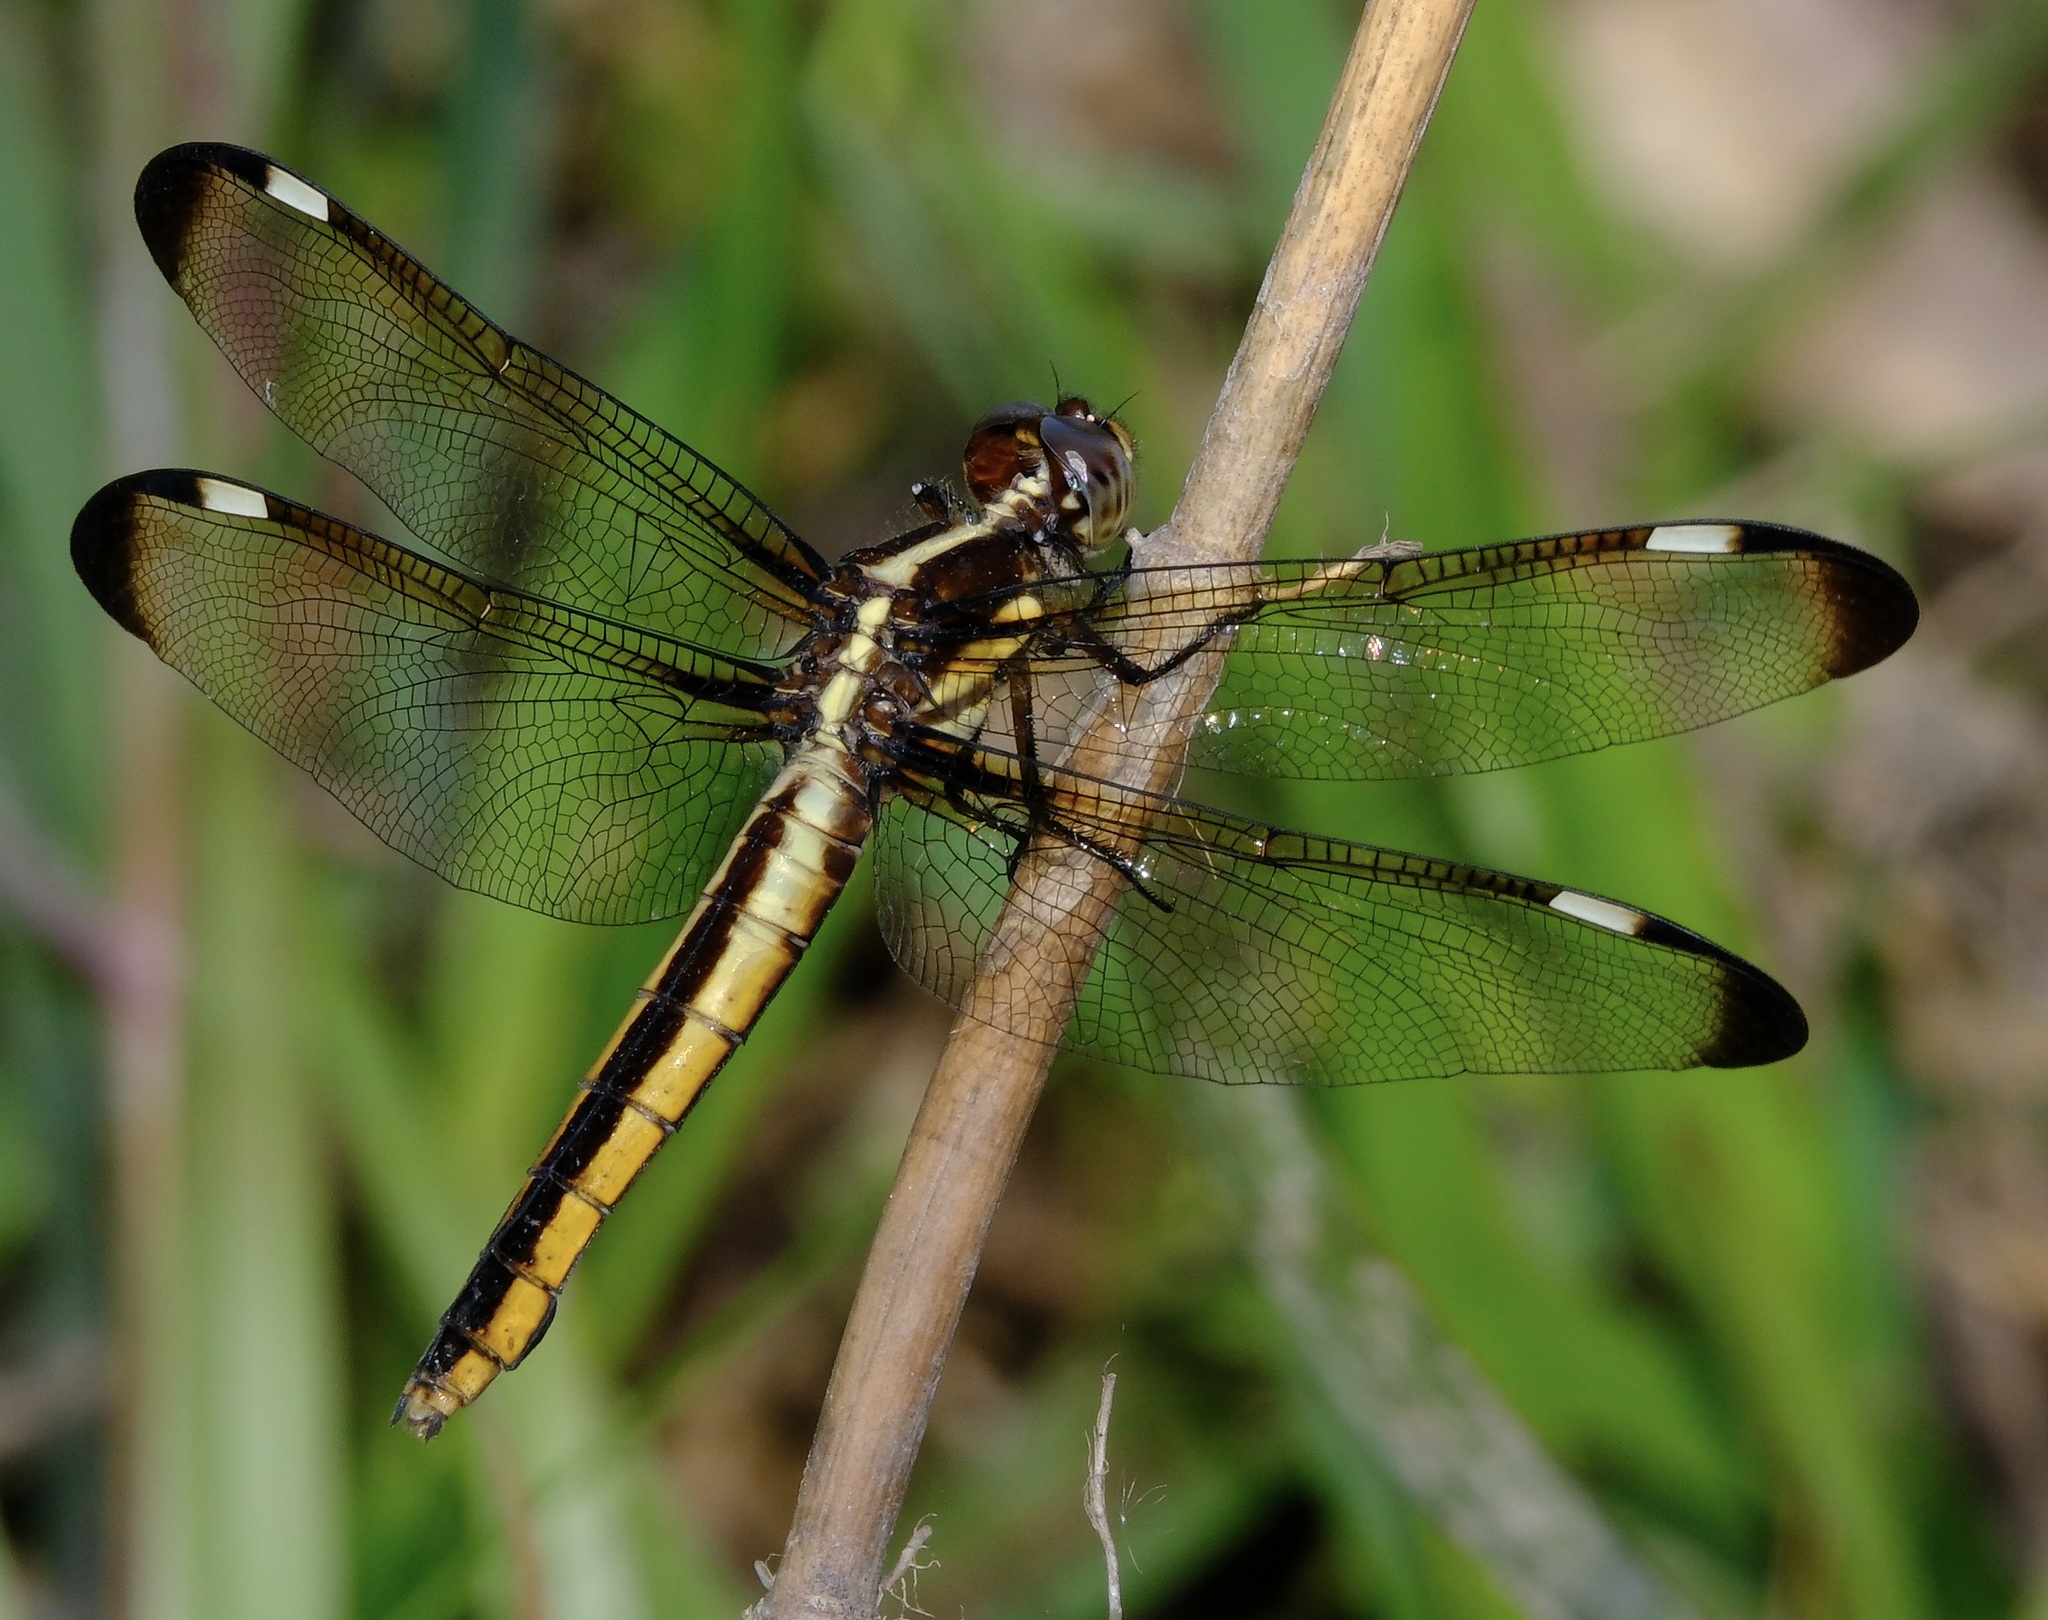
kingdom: Animalia
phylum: Arthropoda
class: Insecta
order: Odonata
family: Libellulidae
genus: Libellula
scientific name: Libellula cyanea
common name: Spangled skimmer
